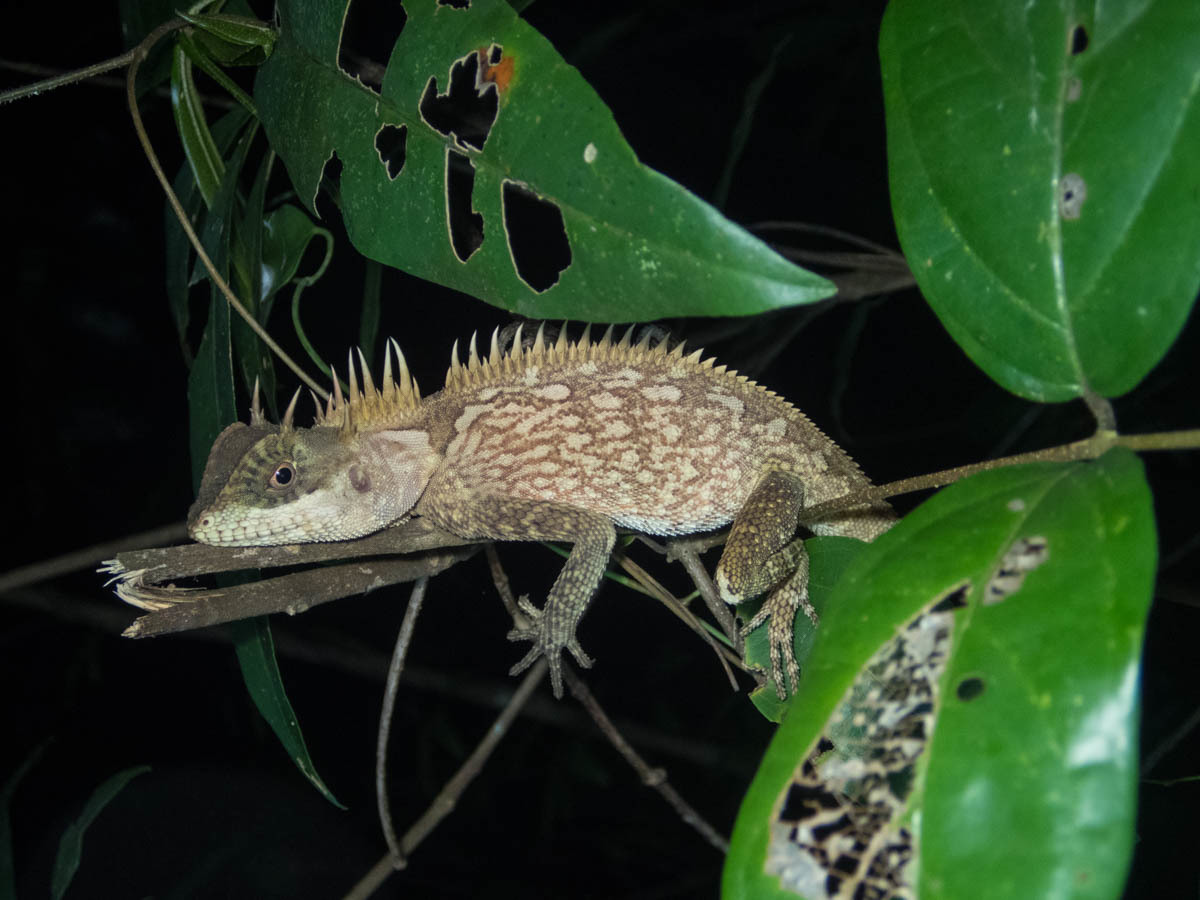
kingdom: Animalia
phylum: Chordata
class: Squamata
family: Agamidae
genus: Acanthosaura
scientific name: Acanthosaura cardamomensis
